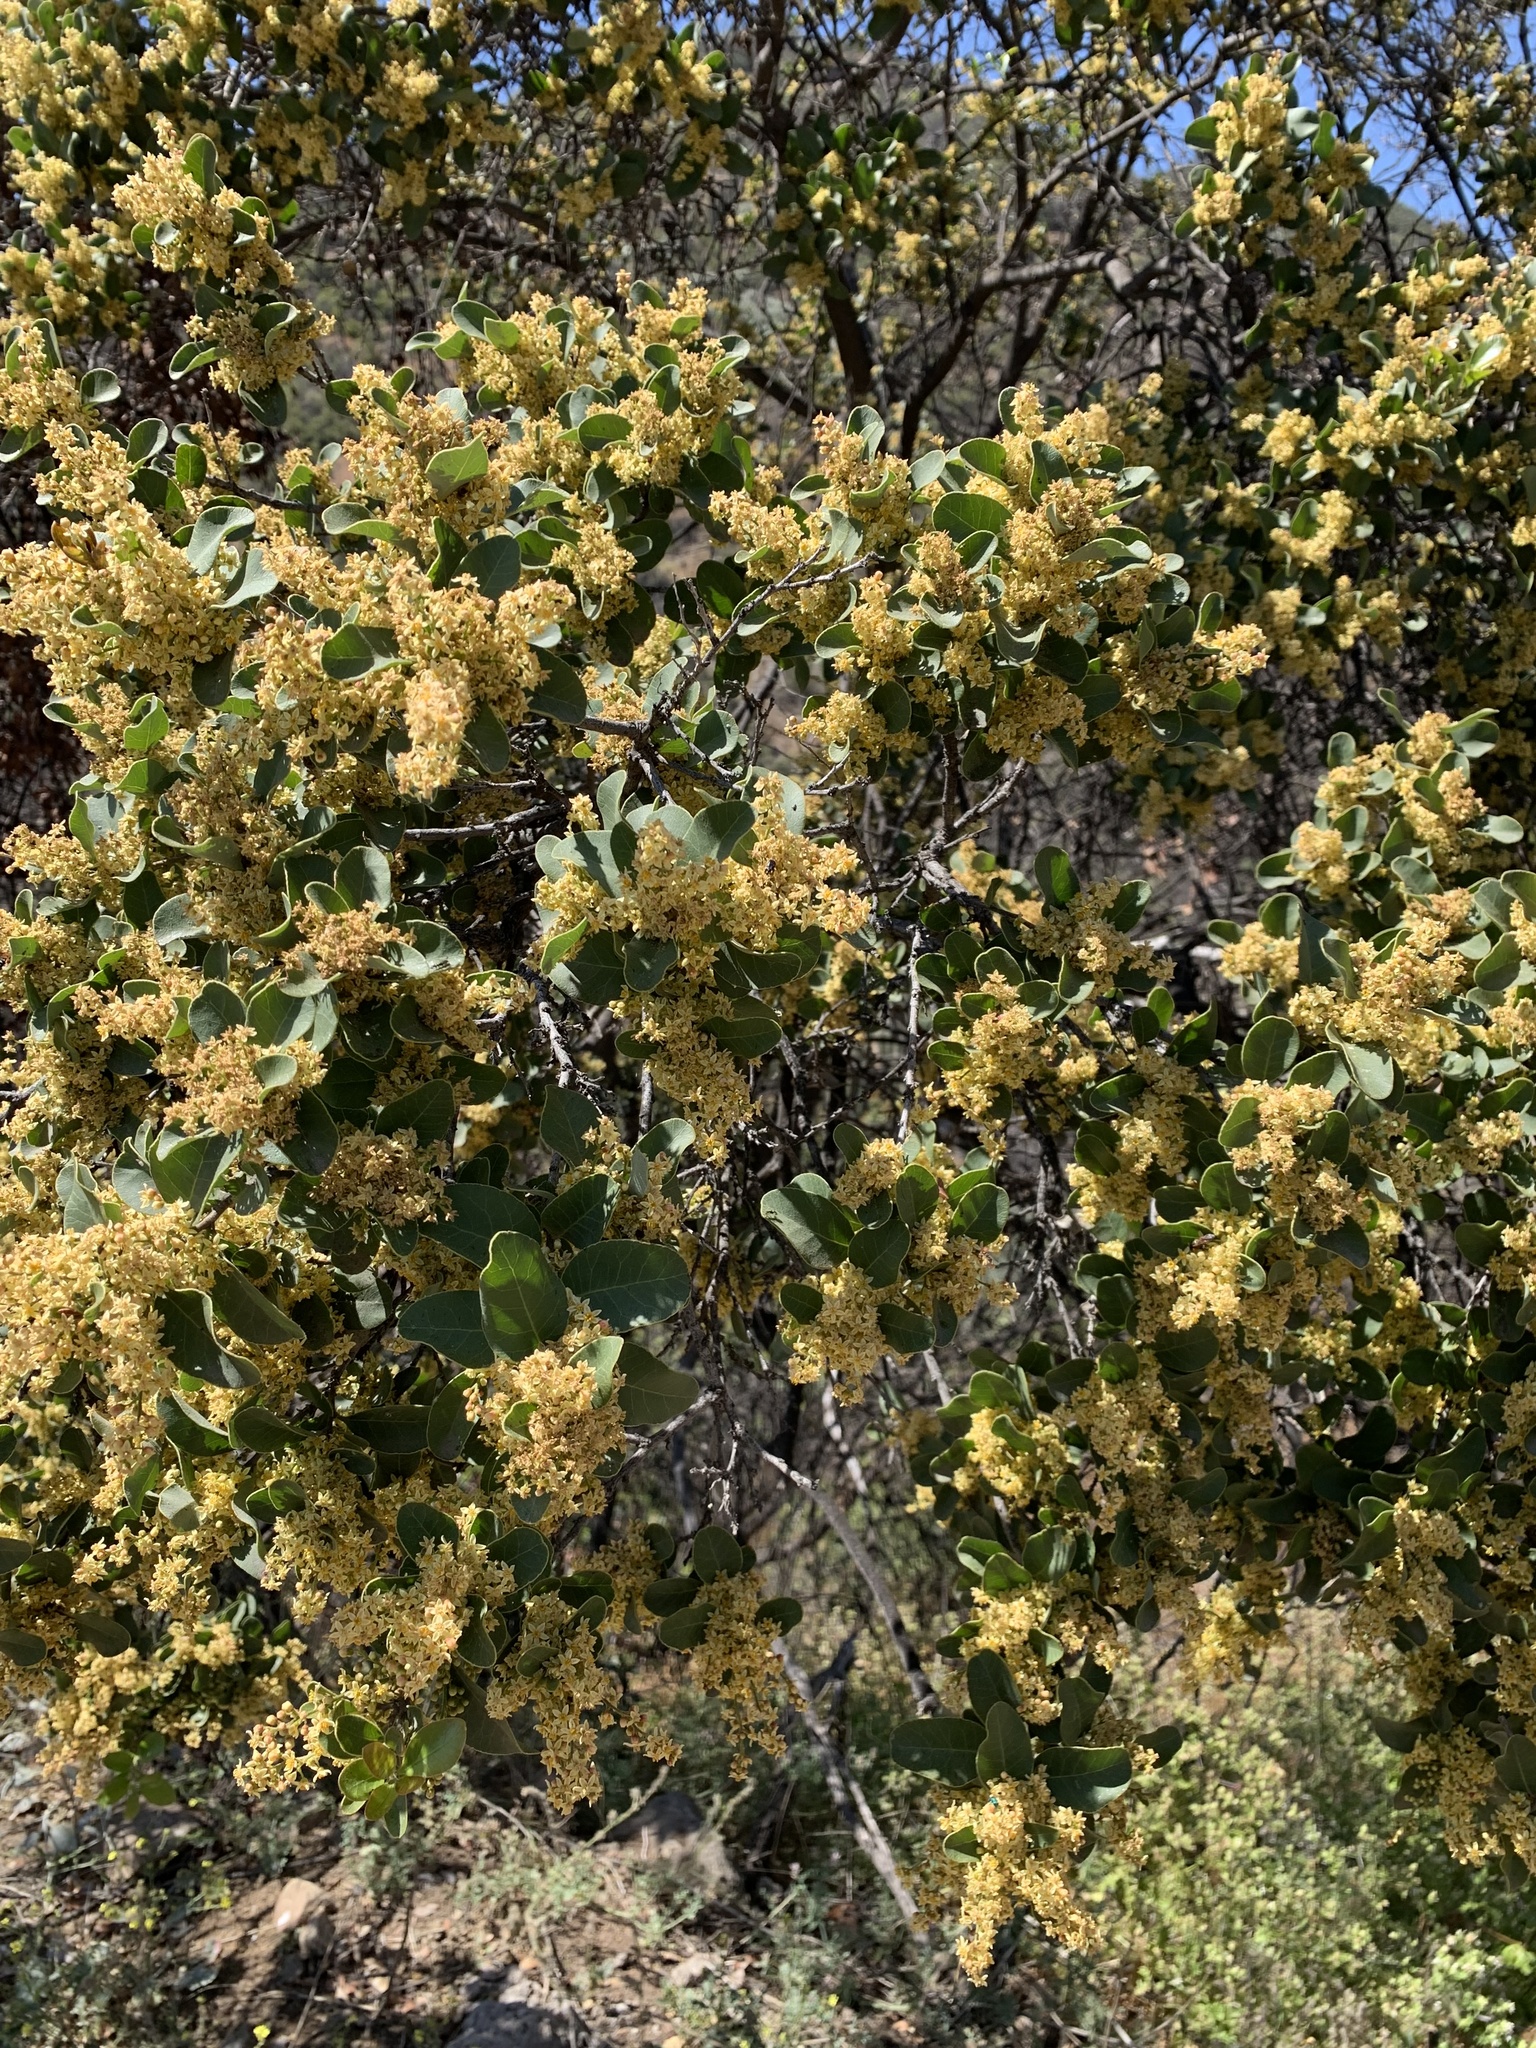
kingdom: Plantae
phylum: Tracheophyta
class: Magnoliopsida
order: Sapindales
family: Anacardiaceae
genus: Lithraea
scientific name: Lithraea caustica
